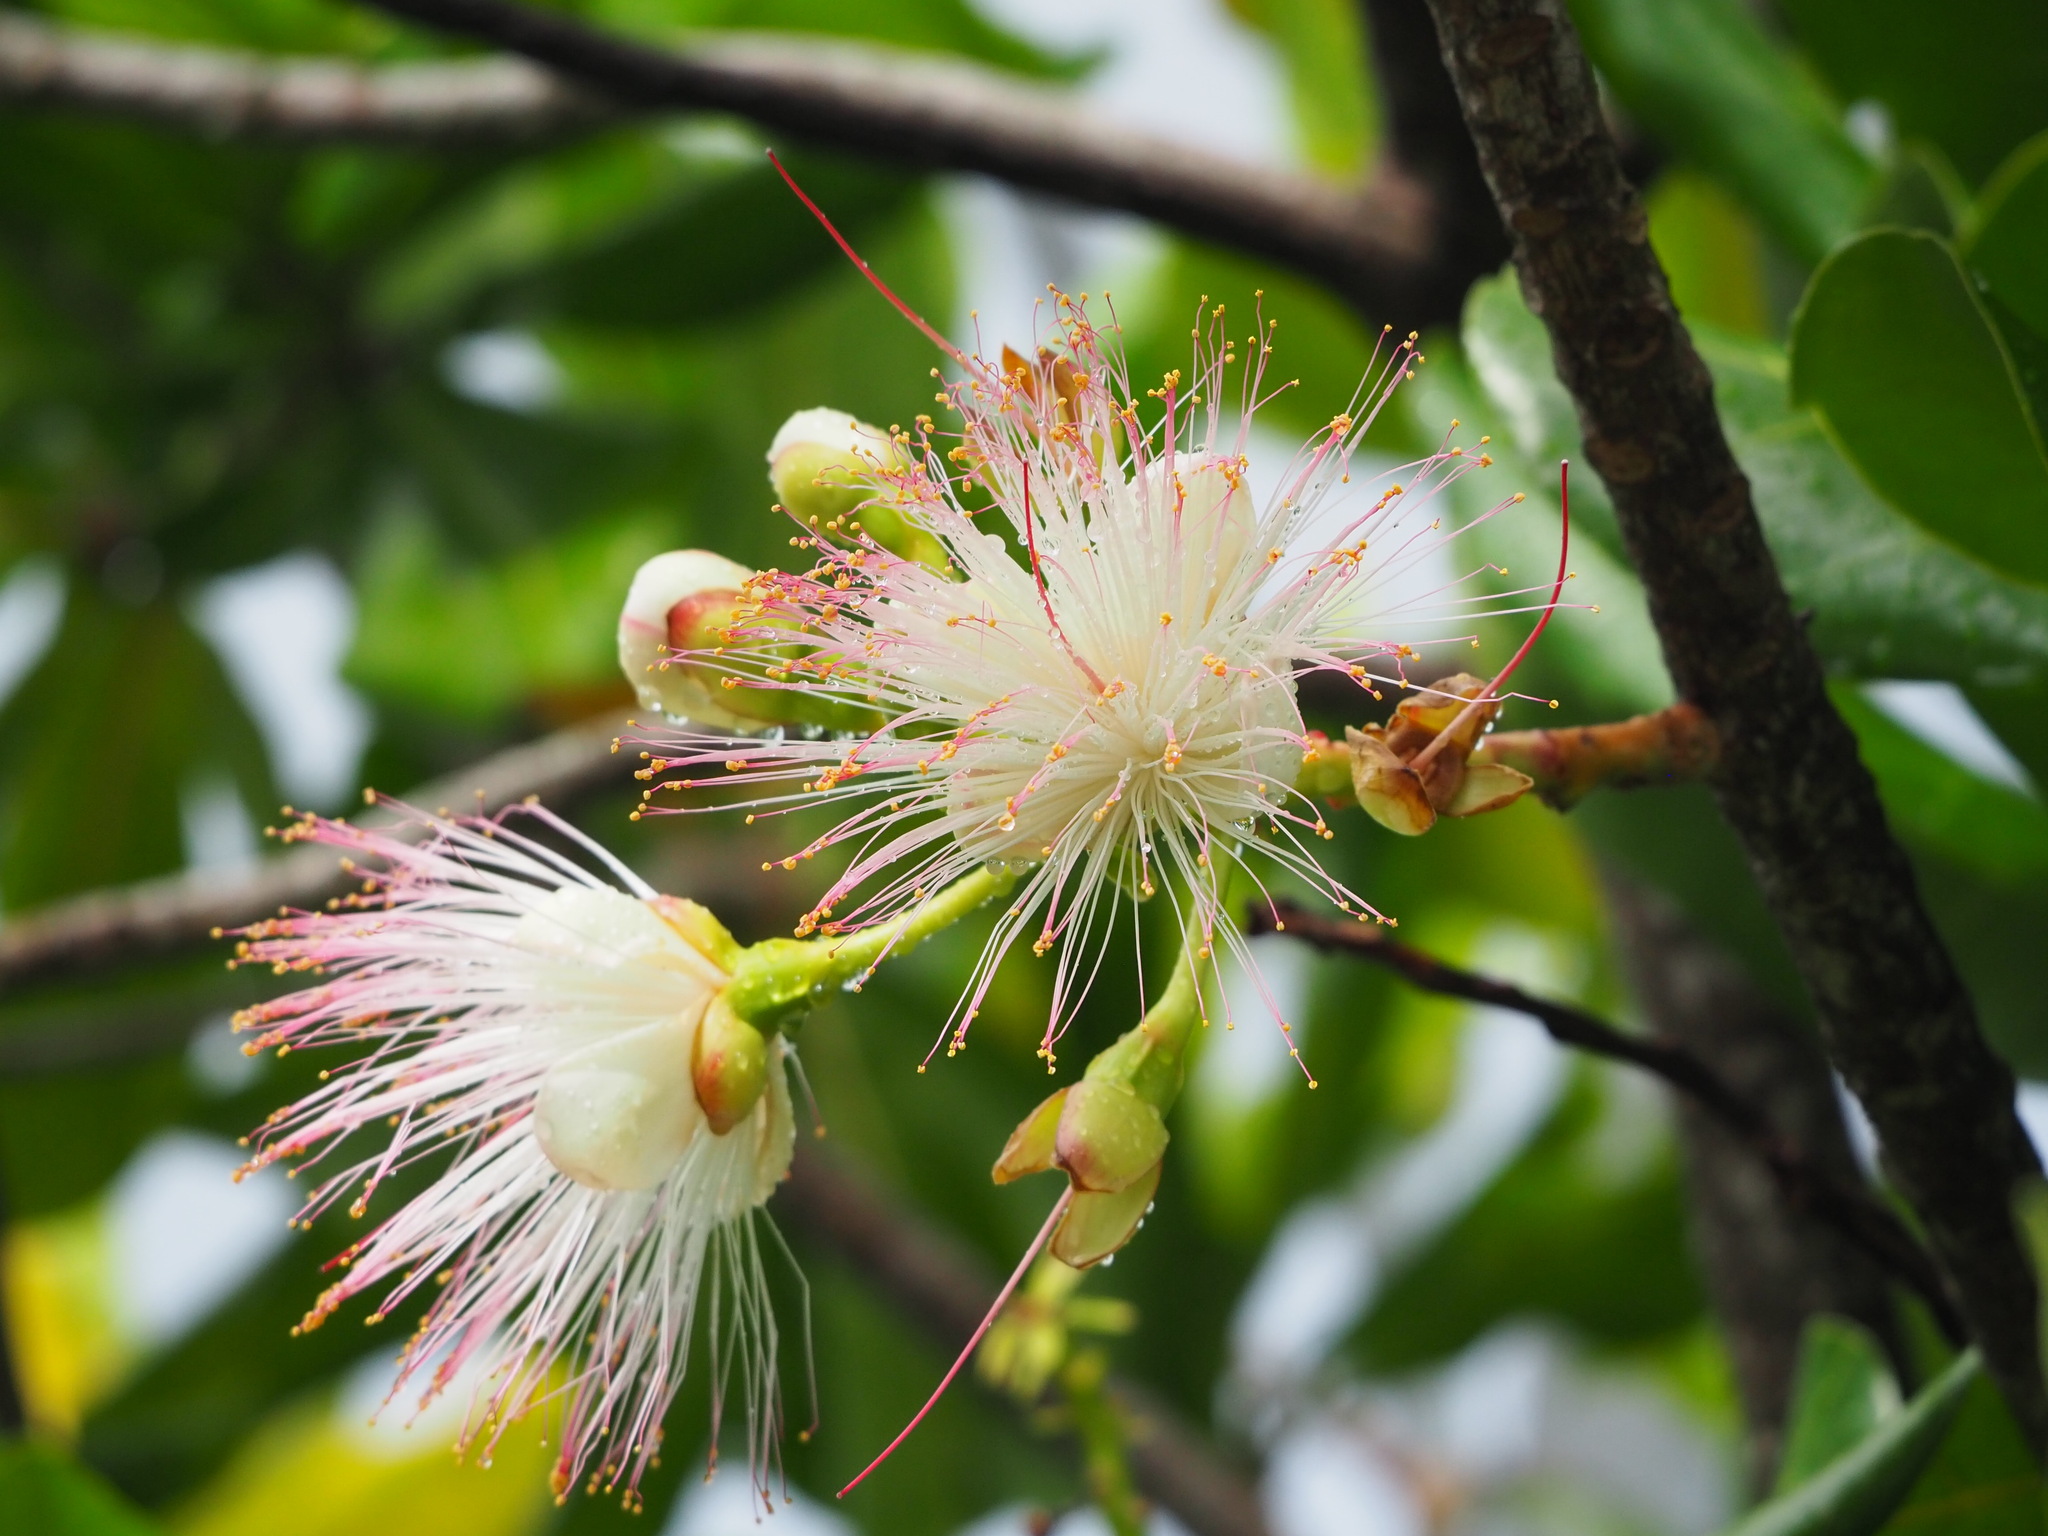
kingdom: Plantae
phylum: Tracheophyta
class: Magnoliopsida
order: Ericales
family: Lecythidaceae
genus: Barringtonia
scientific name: Barringtonia asiatica
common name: Mango-pine
